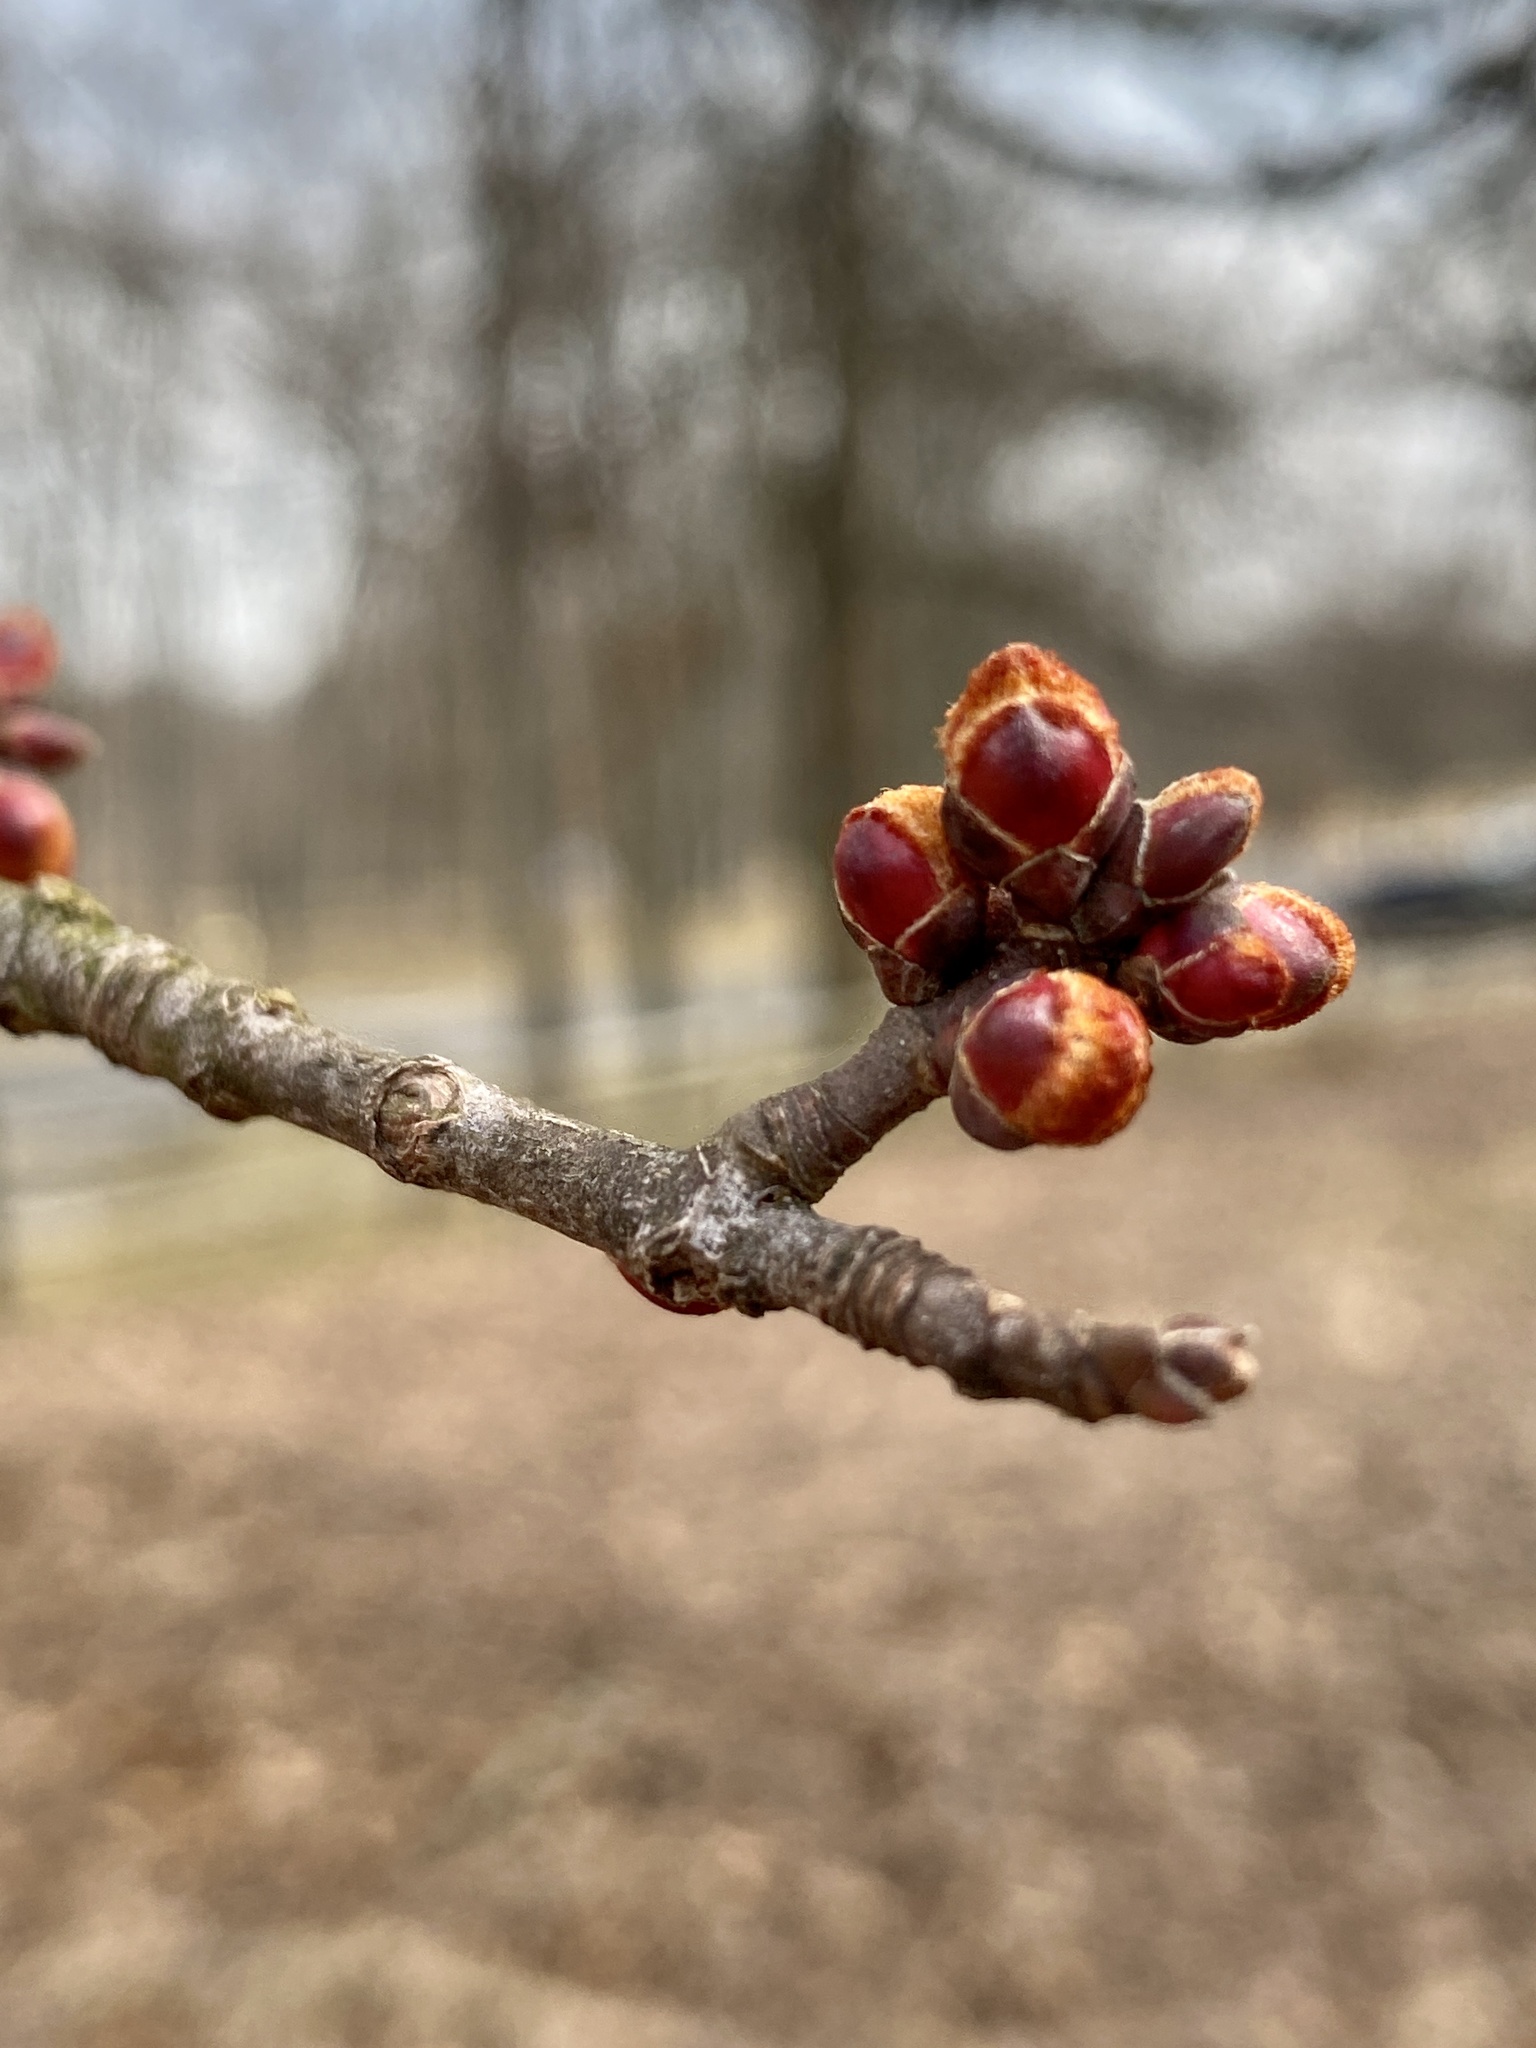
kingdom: Plantae
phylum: Tracheophyta
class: Magnoliopsida
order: Sapindales
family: Sapindaceae
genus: Acer
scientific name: Acer rubrum
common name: Red maple
